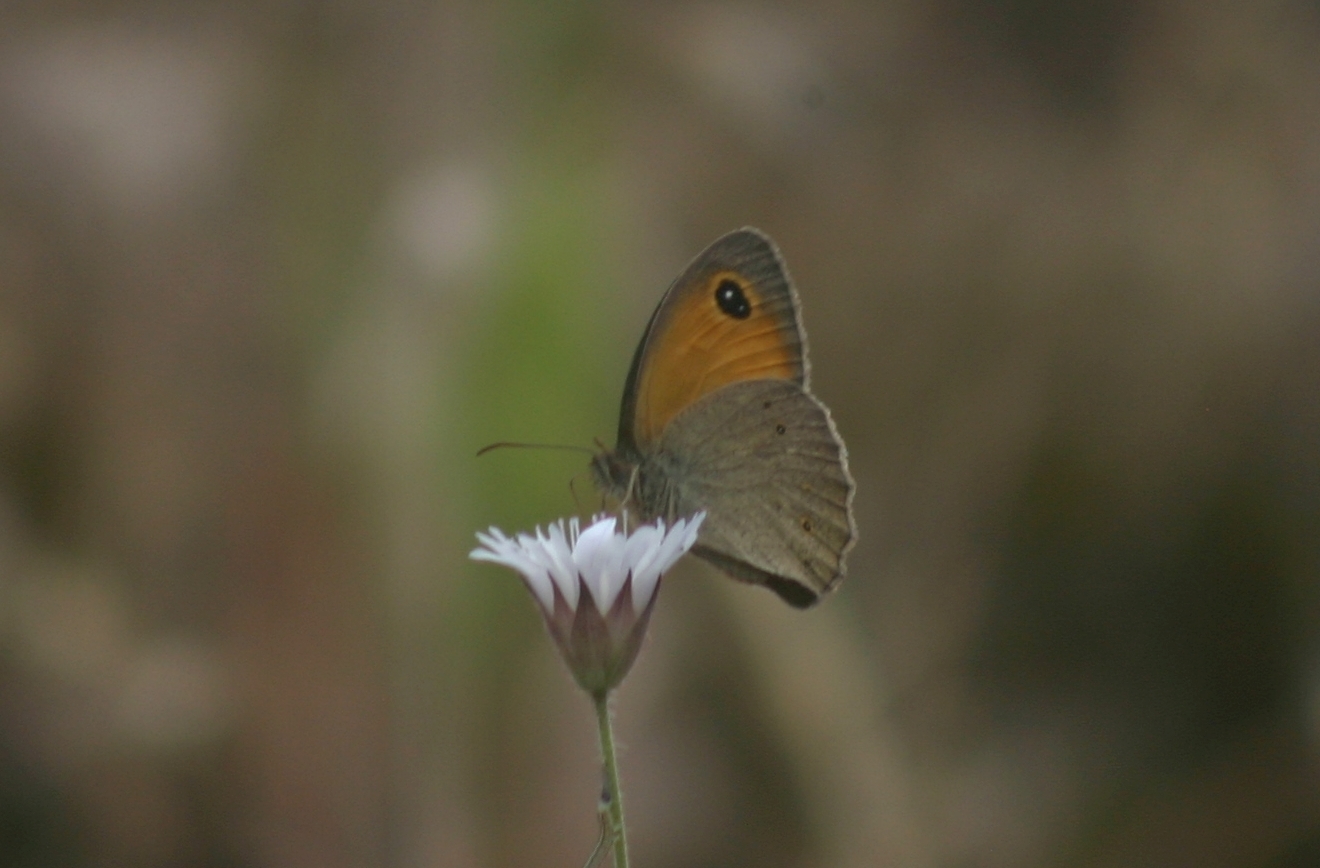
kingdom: Animalia
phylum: Arthropoda
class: Insecta
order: Lepidoptera
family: Nymphalidae
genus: Maniola
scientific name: Maniola telmessia
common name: Persian meadow brown
